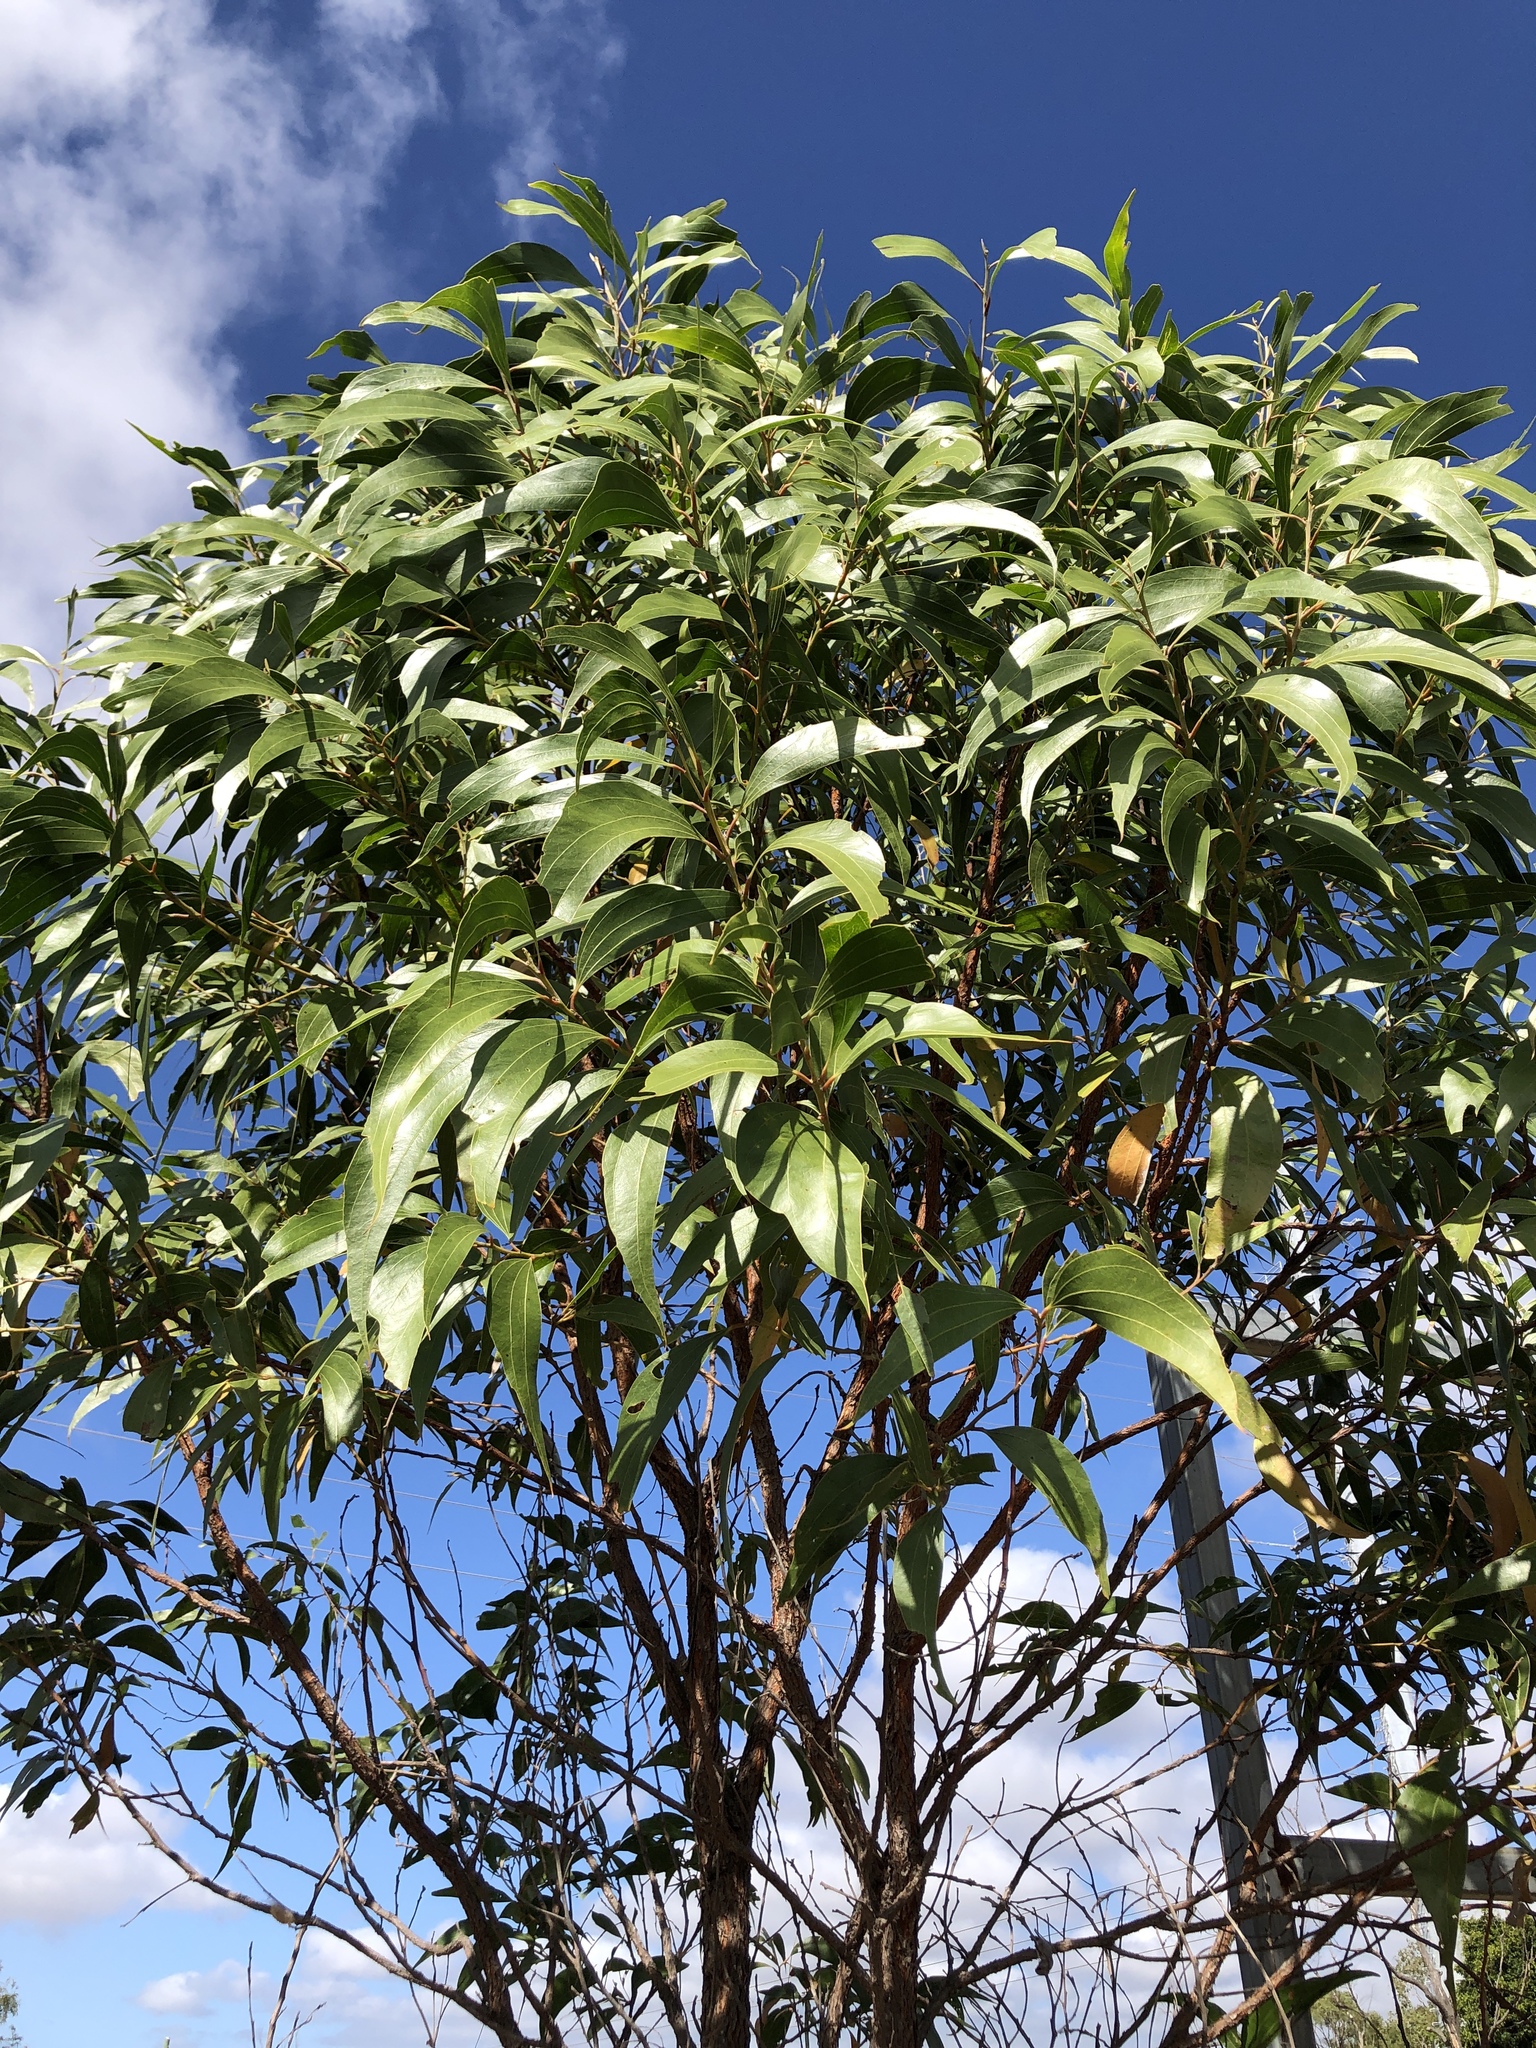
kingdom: Plantae
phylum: Tracheophyta
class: Magnoliopsida
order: Fabales
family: Fabaceae
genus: Acacia
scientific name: Acacia flavescens
